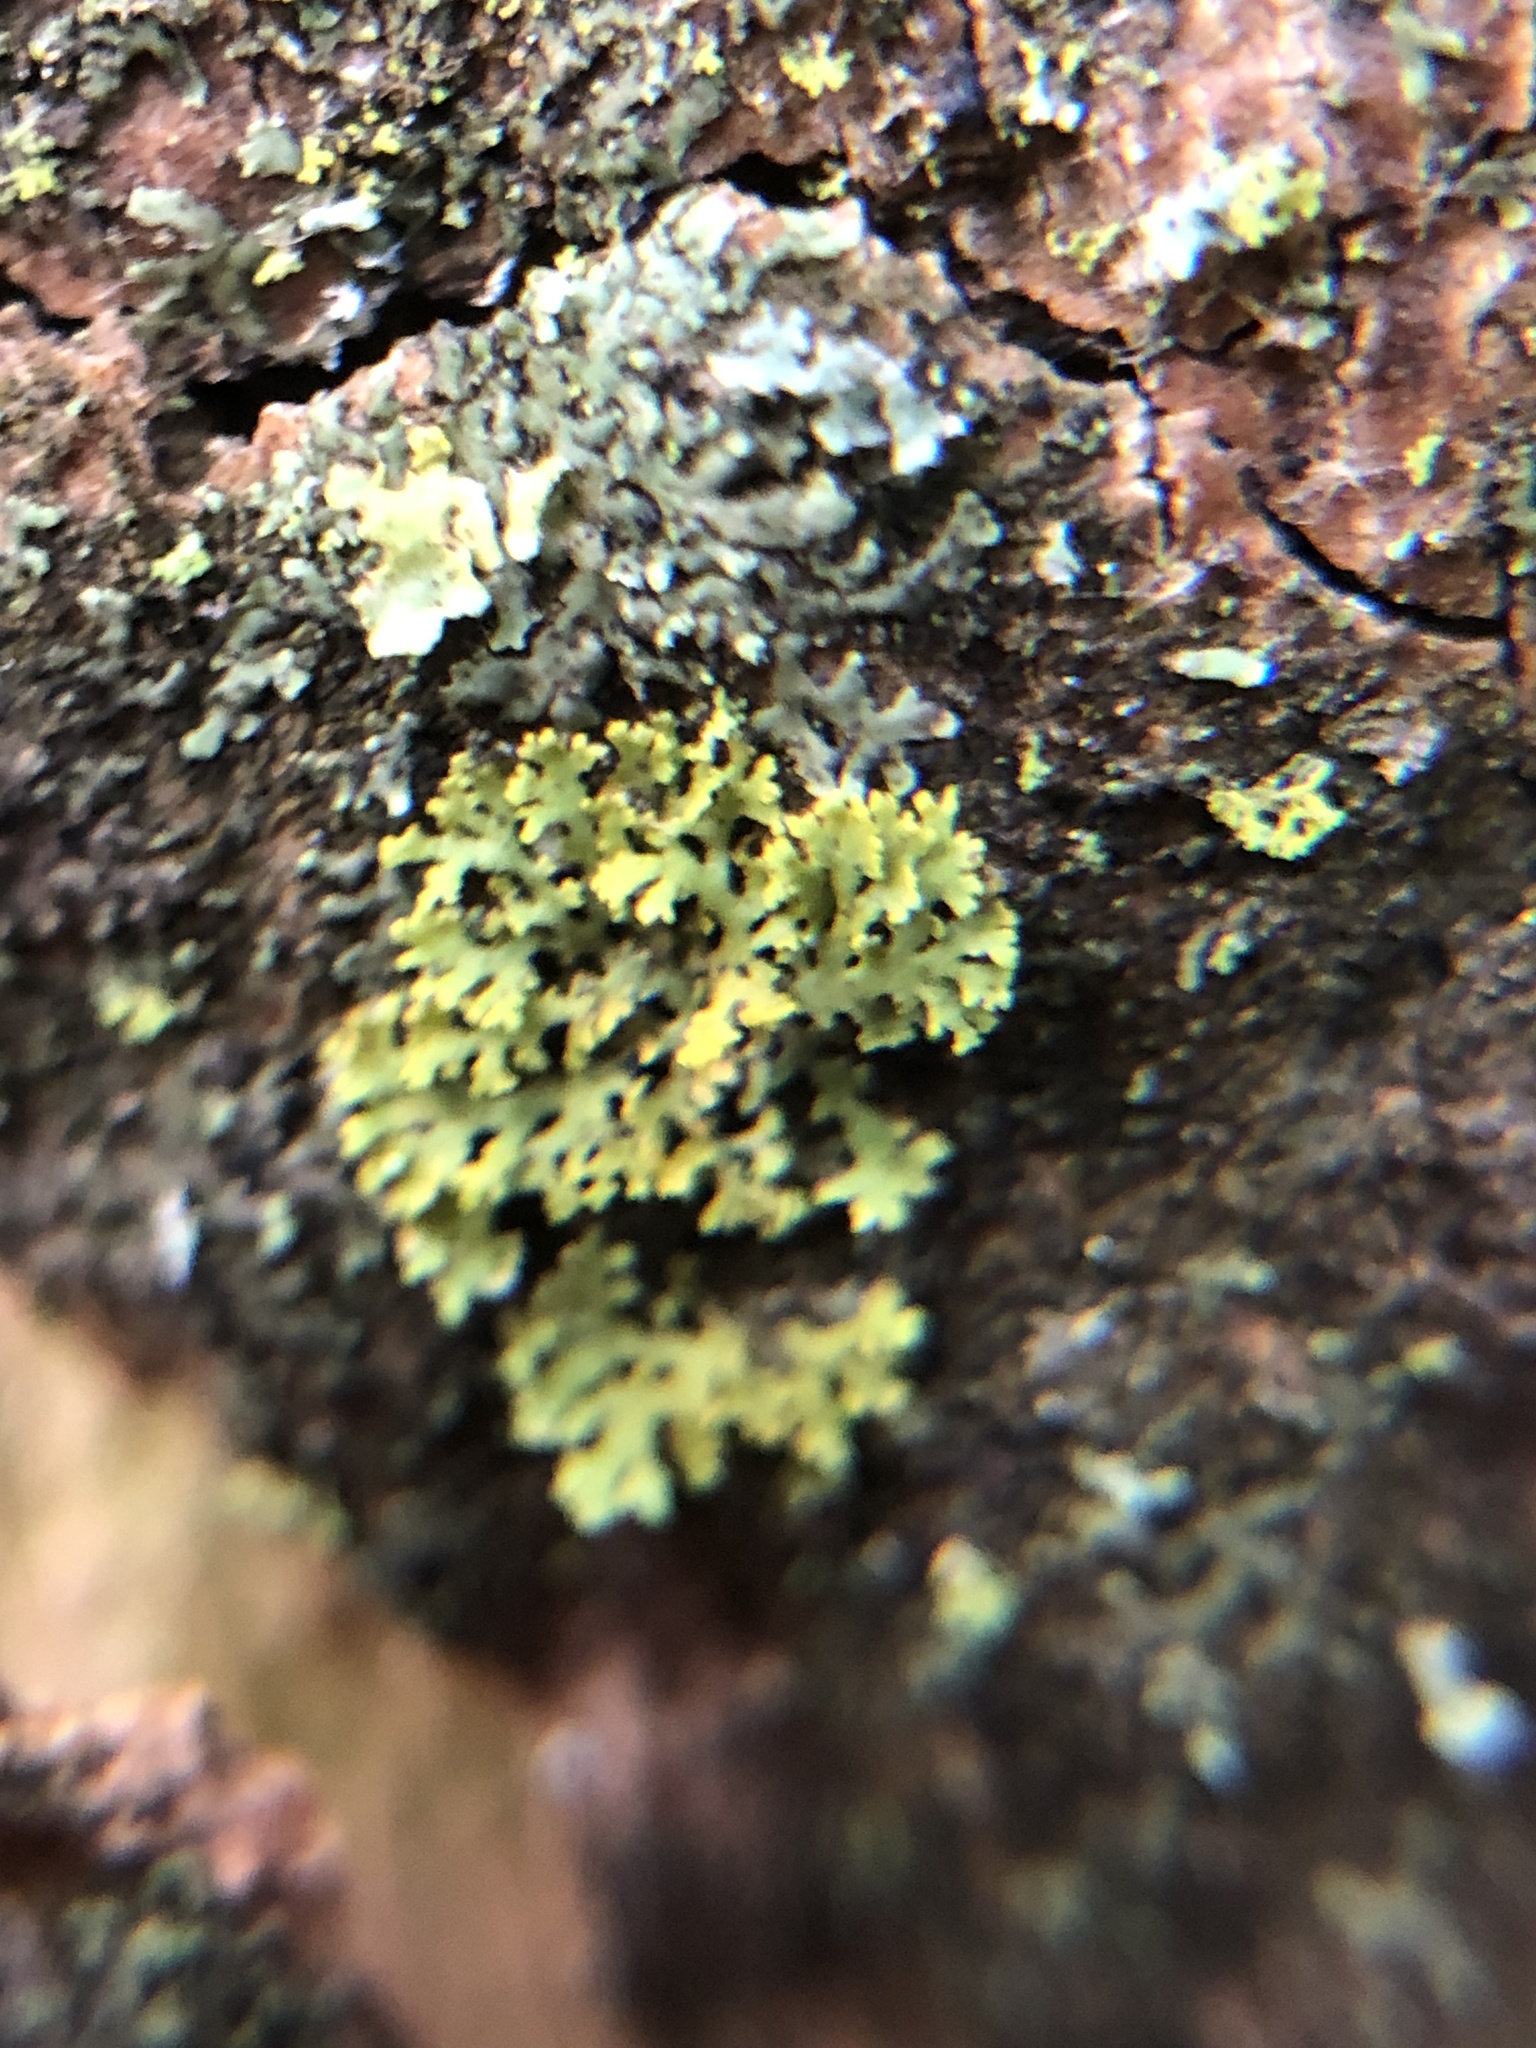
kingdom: Fungi
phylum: Ascomycota
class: Candelariomycetes
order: Candelariales
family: Candelariaceae
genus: Candelaria
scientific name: Candelaria concolor
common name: Candleflame lichen
